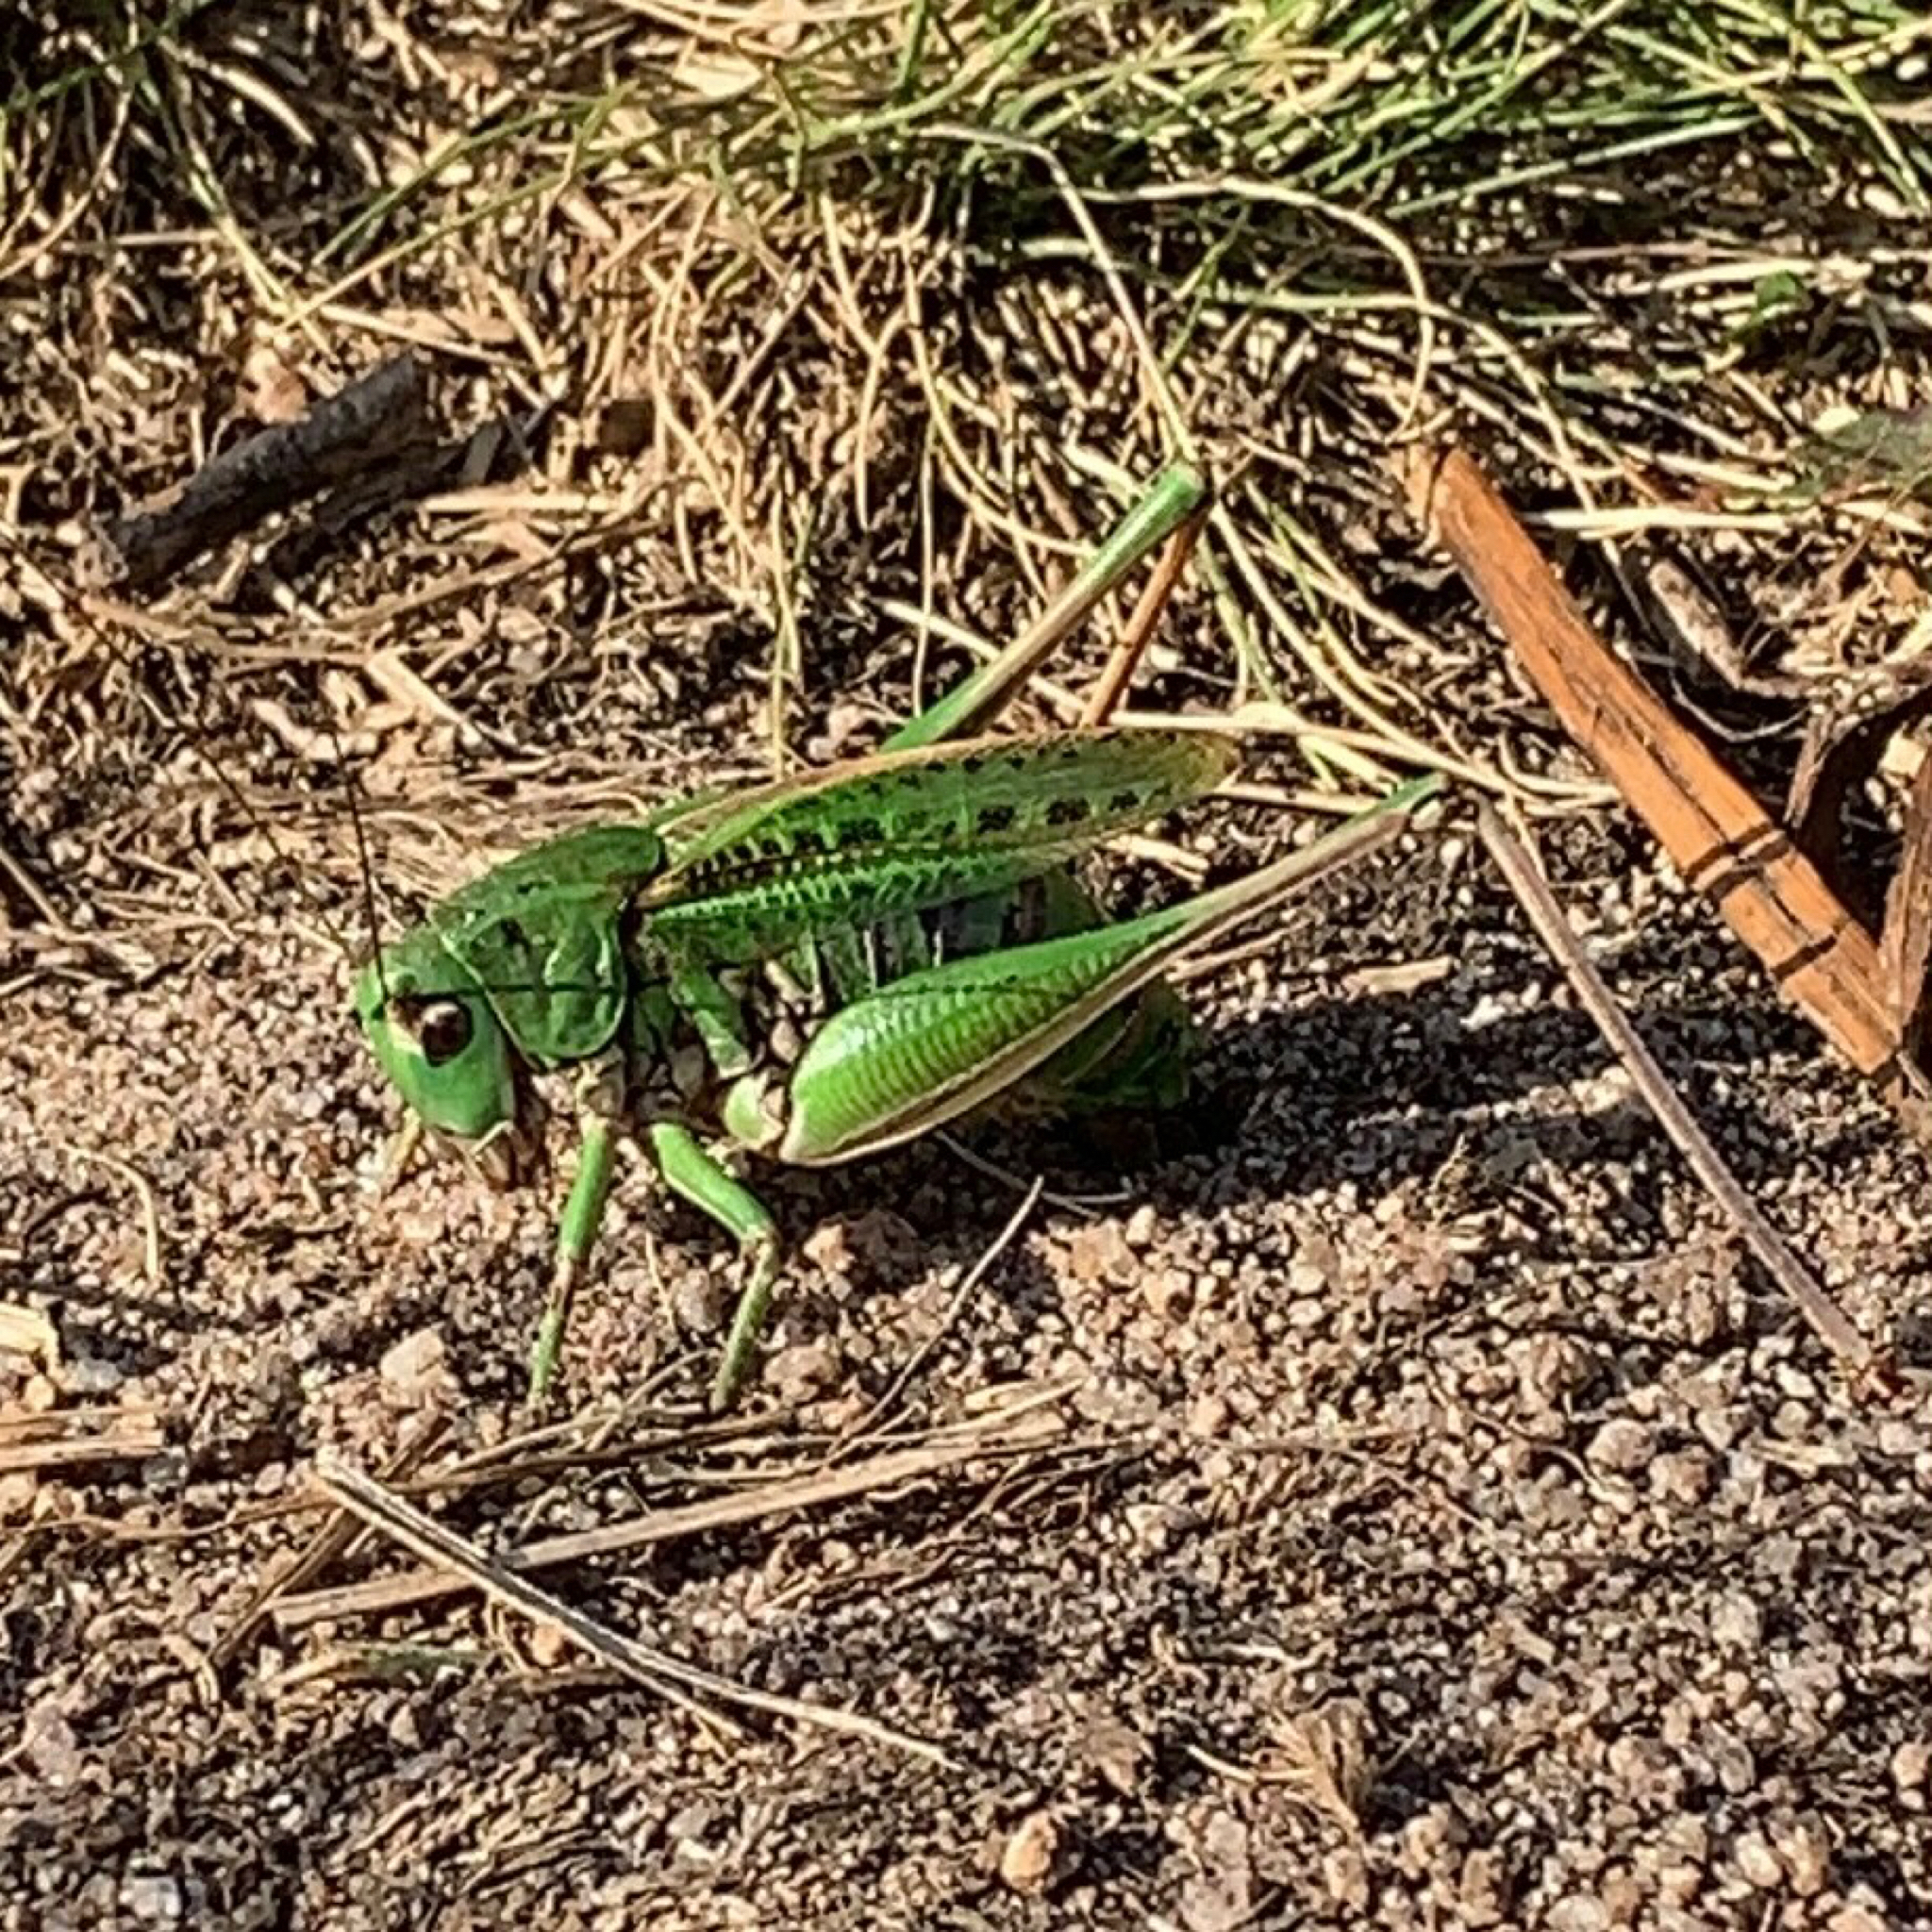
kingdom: Animalia
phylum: Arthropoda
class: Insecta
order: Orthoptera
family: Tettigoniidae
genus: Decticus
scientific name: Decticus verrucivorus
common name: Wart-biter
